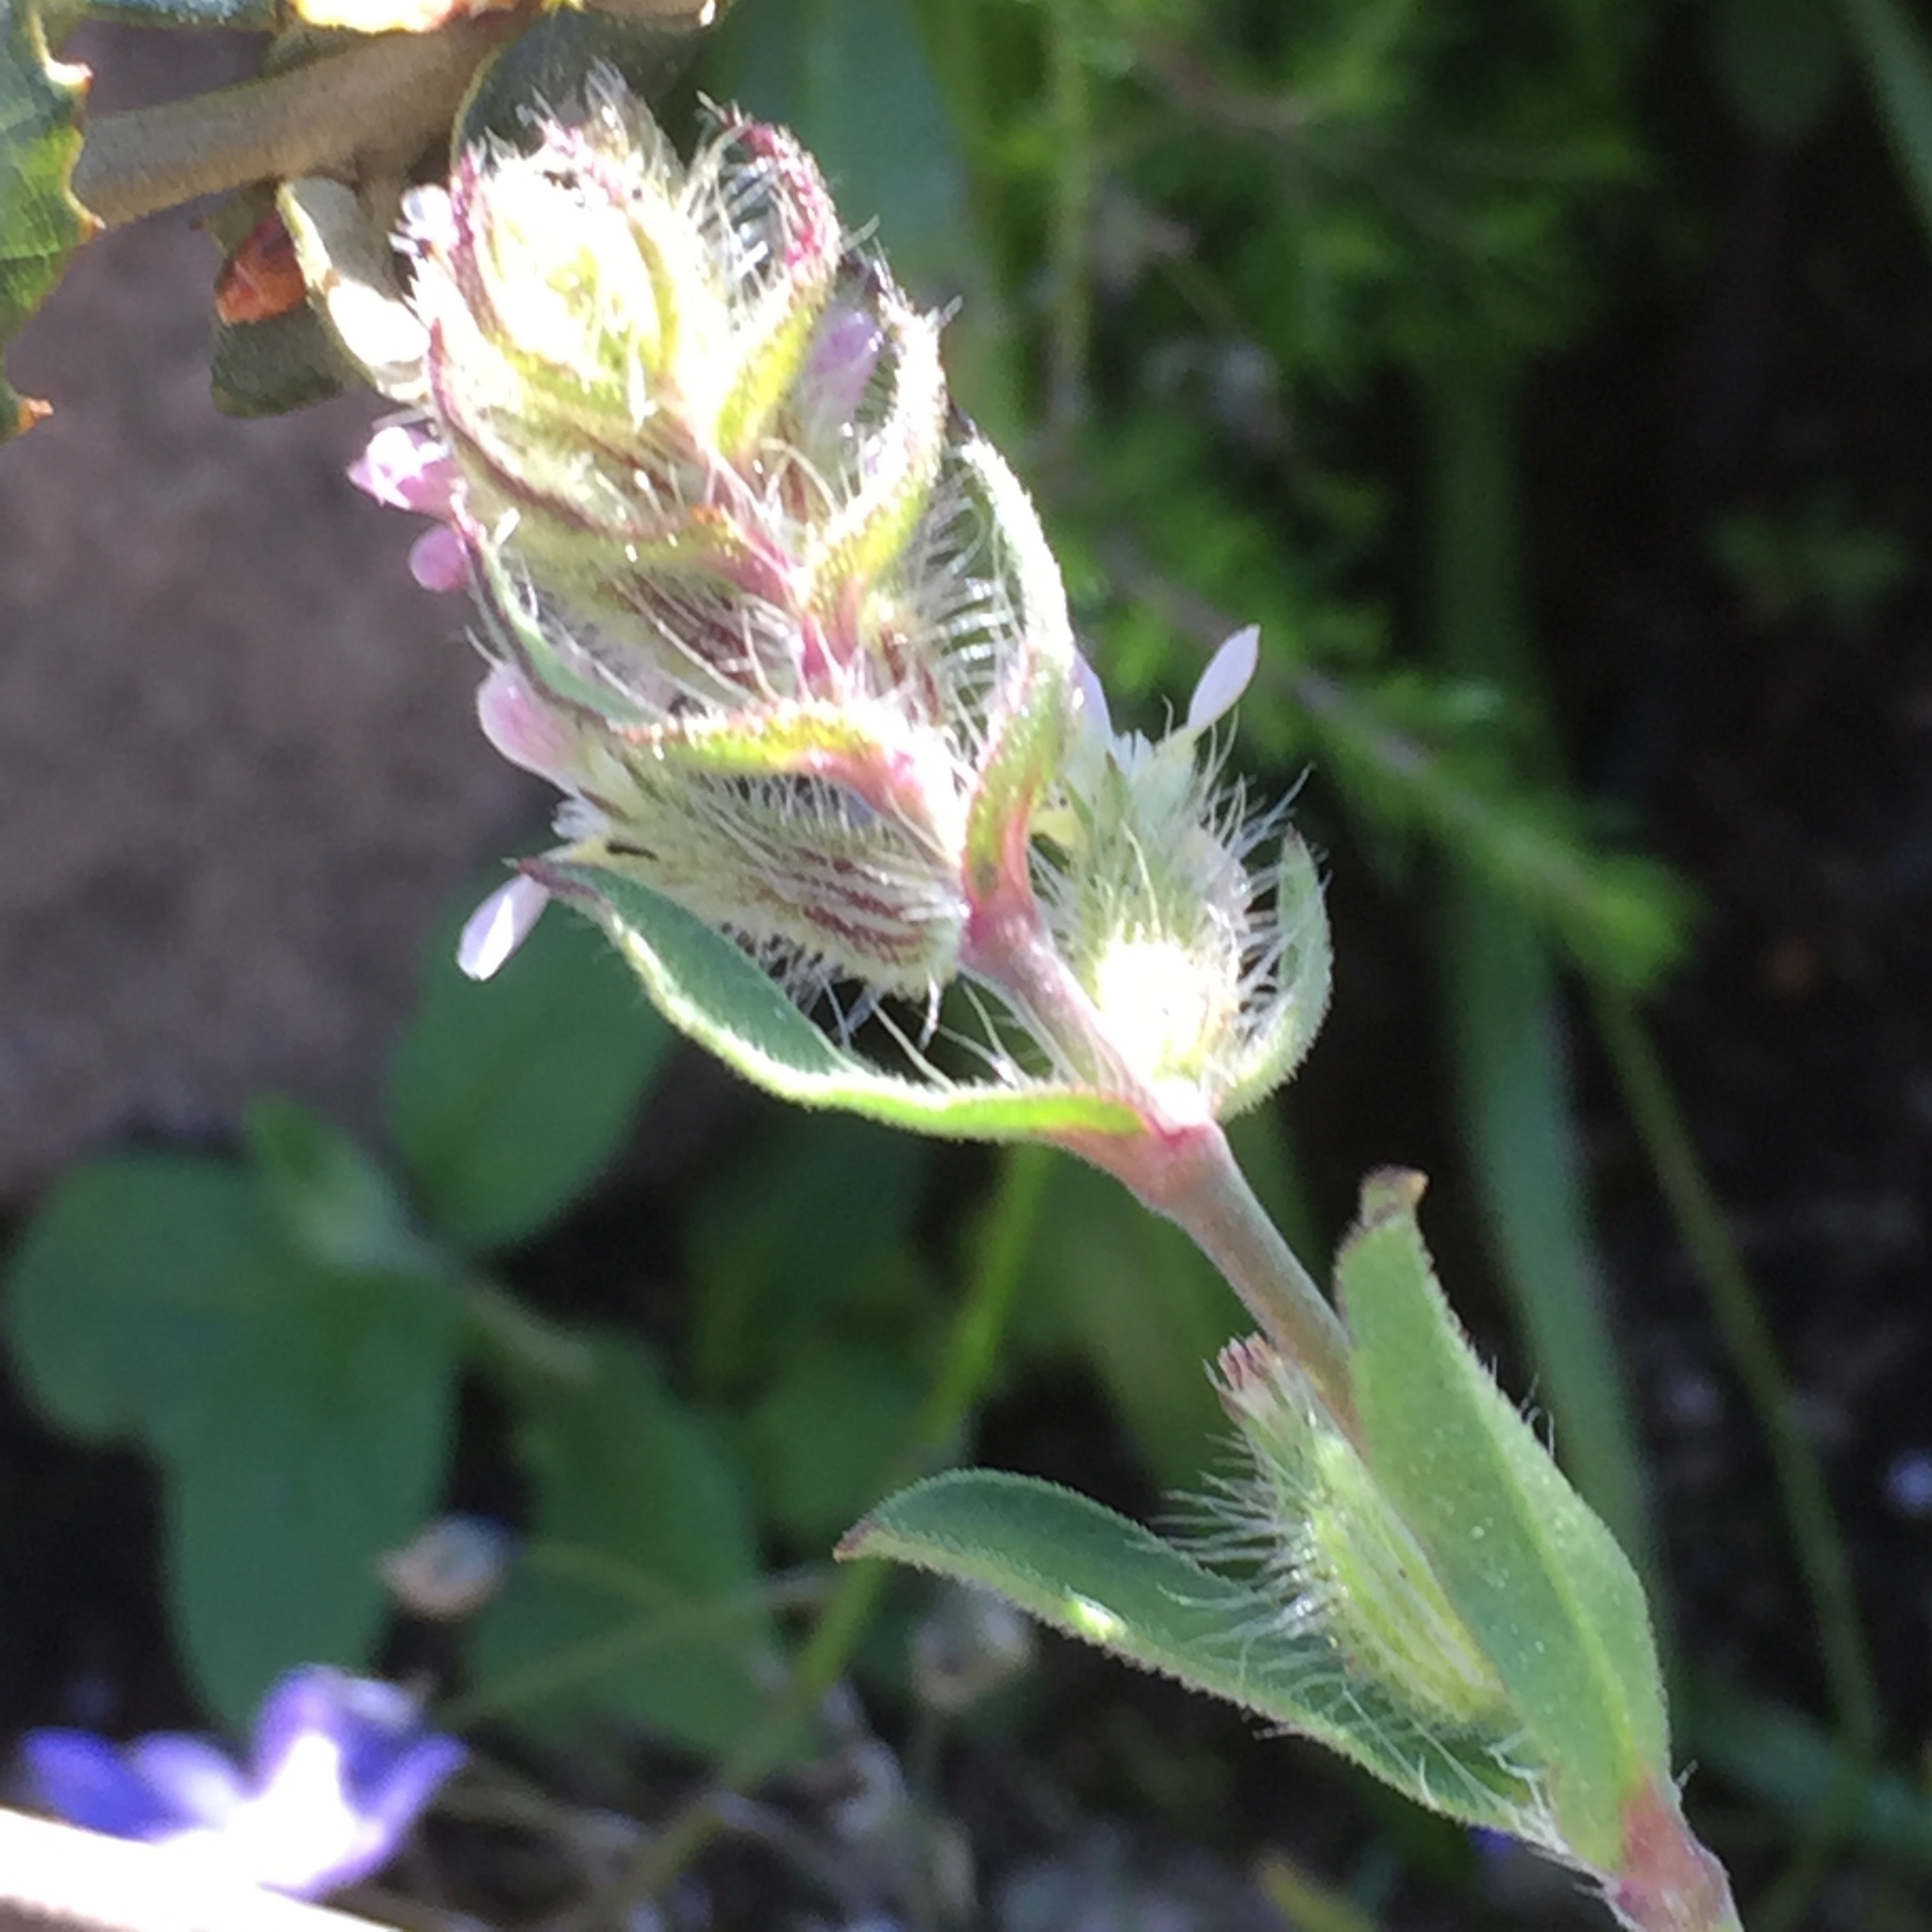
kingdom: Plantae
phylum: Tracheophyta
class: Magnoliopsida
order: Caryophyllales
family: Caryophyllaceae
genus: Silene
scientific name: Silene gallica
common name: Small-flowered catchfly
